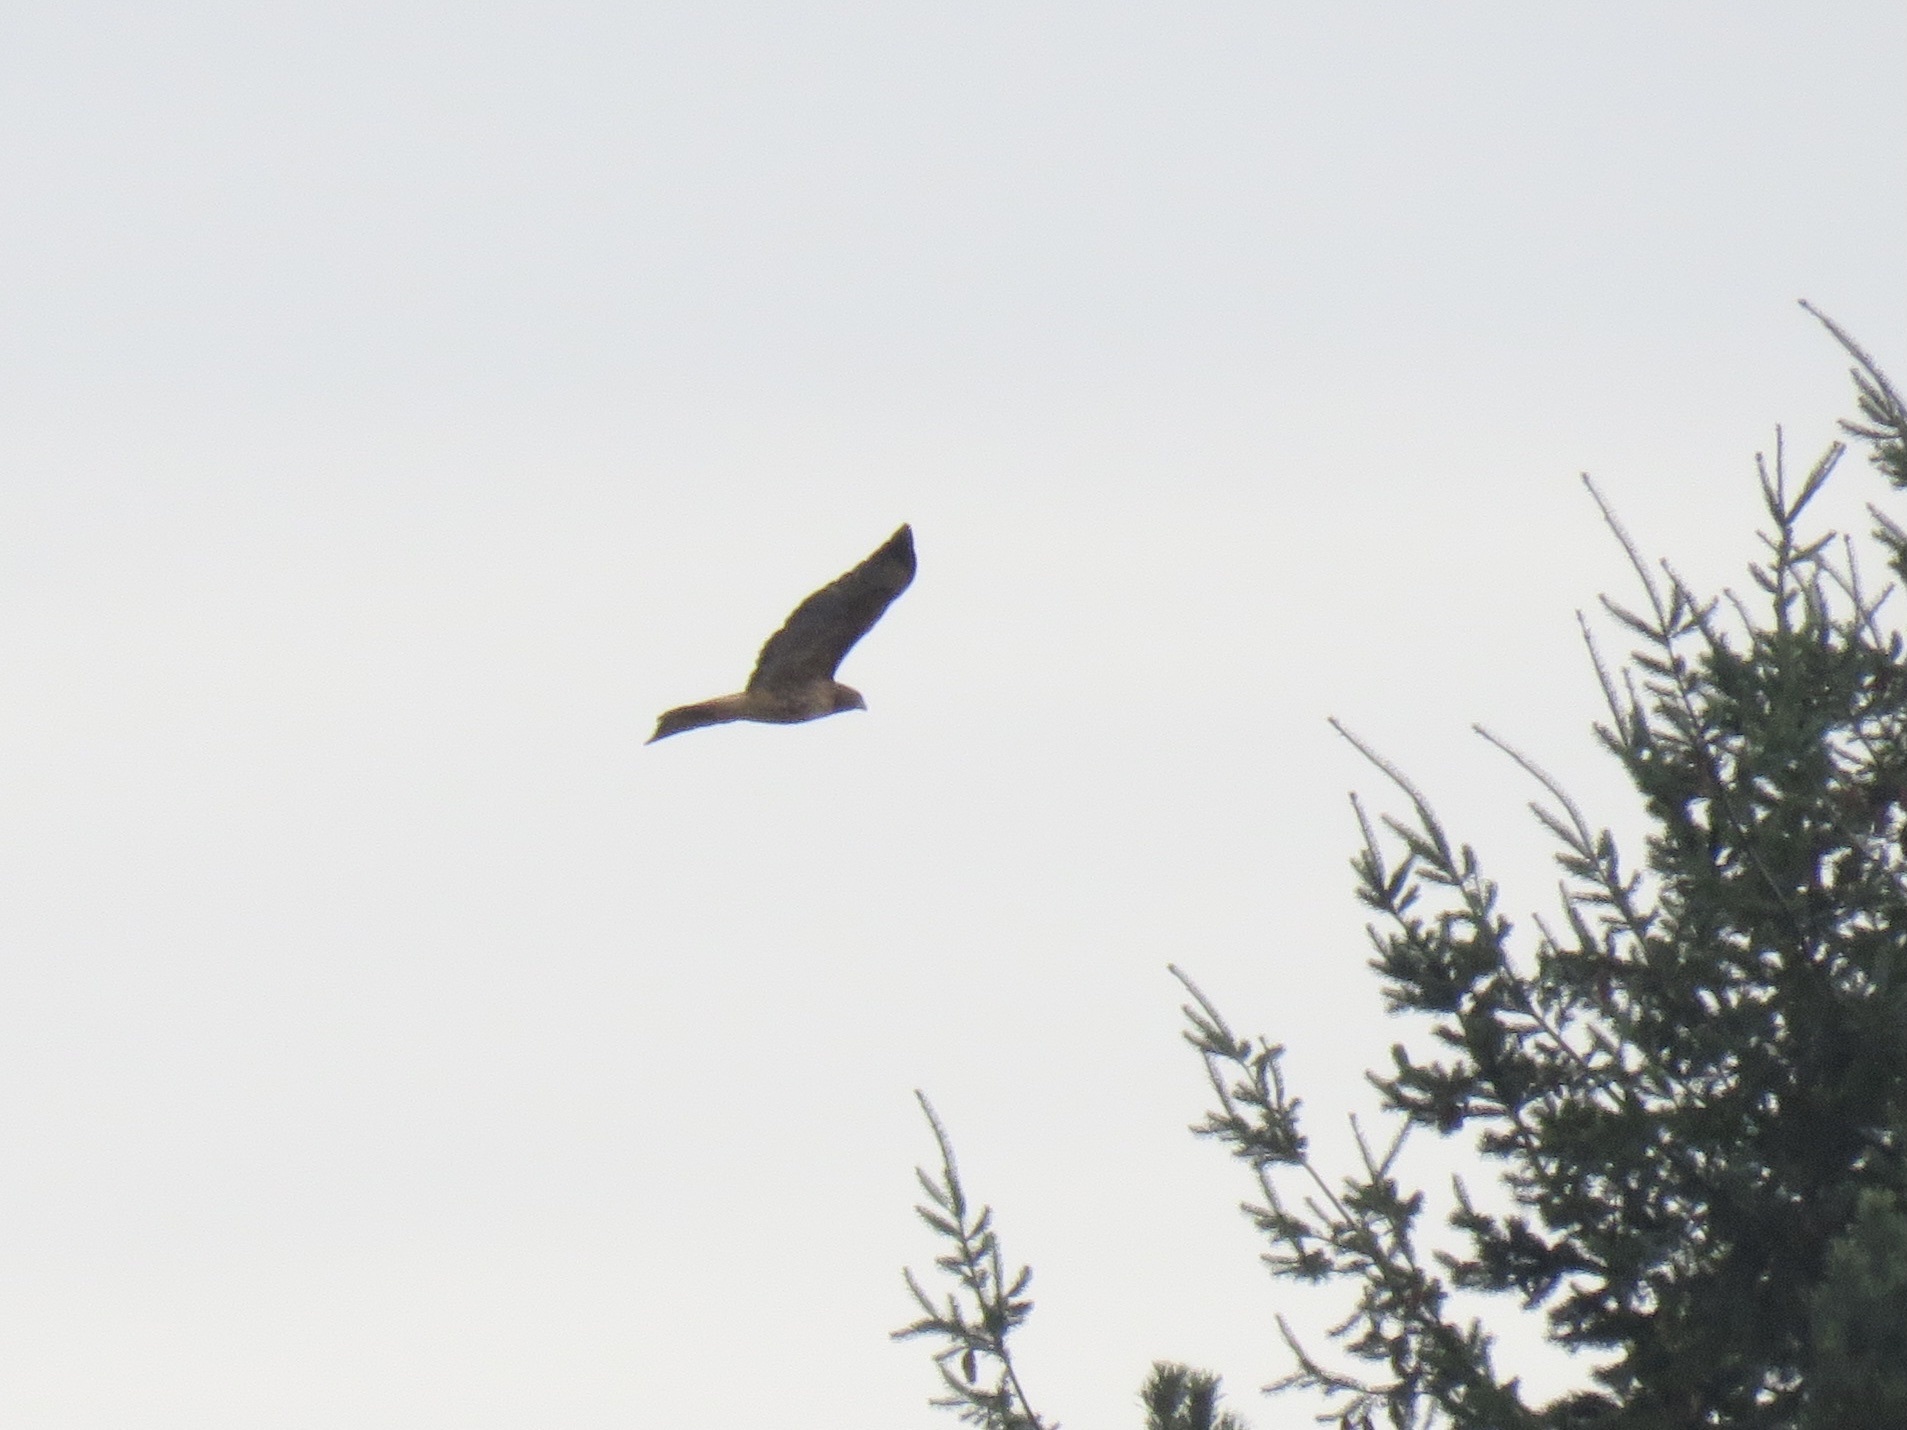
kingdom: Animalia
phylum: Chordata
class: Aves
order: Accipitriformes
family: Accipitridae
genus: Buteo
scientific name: Buteo jamaicensis
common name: Red-tailed hawk
